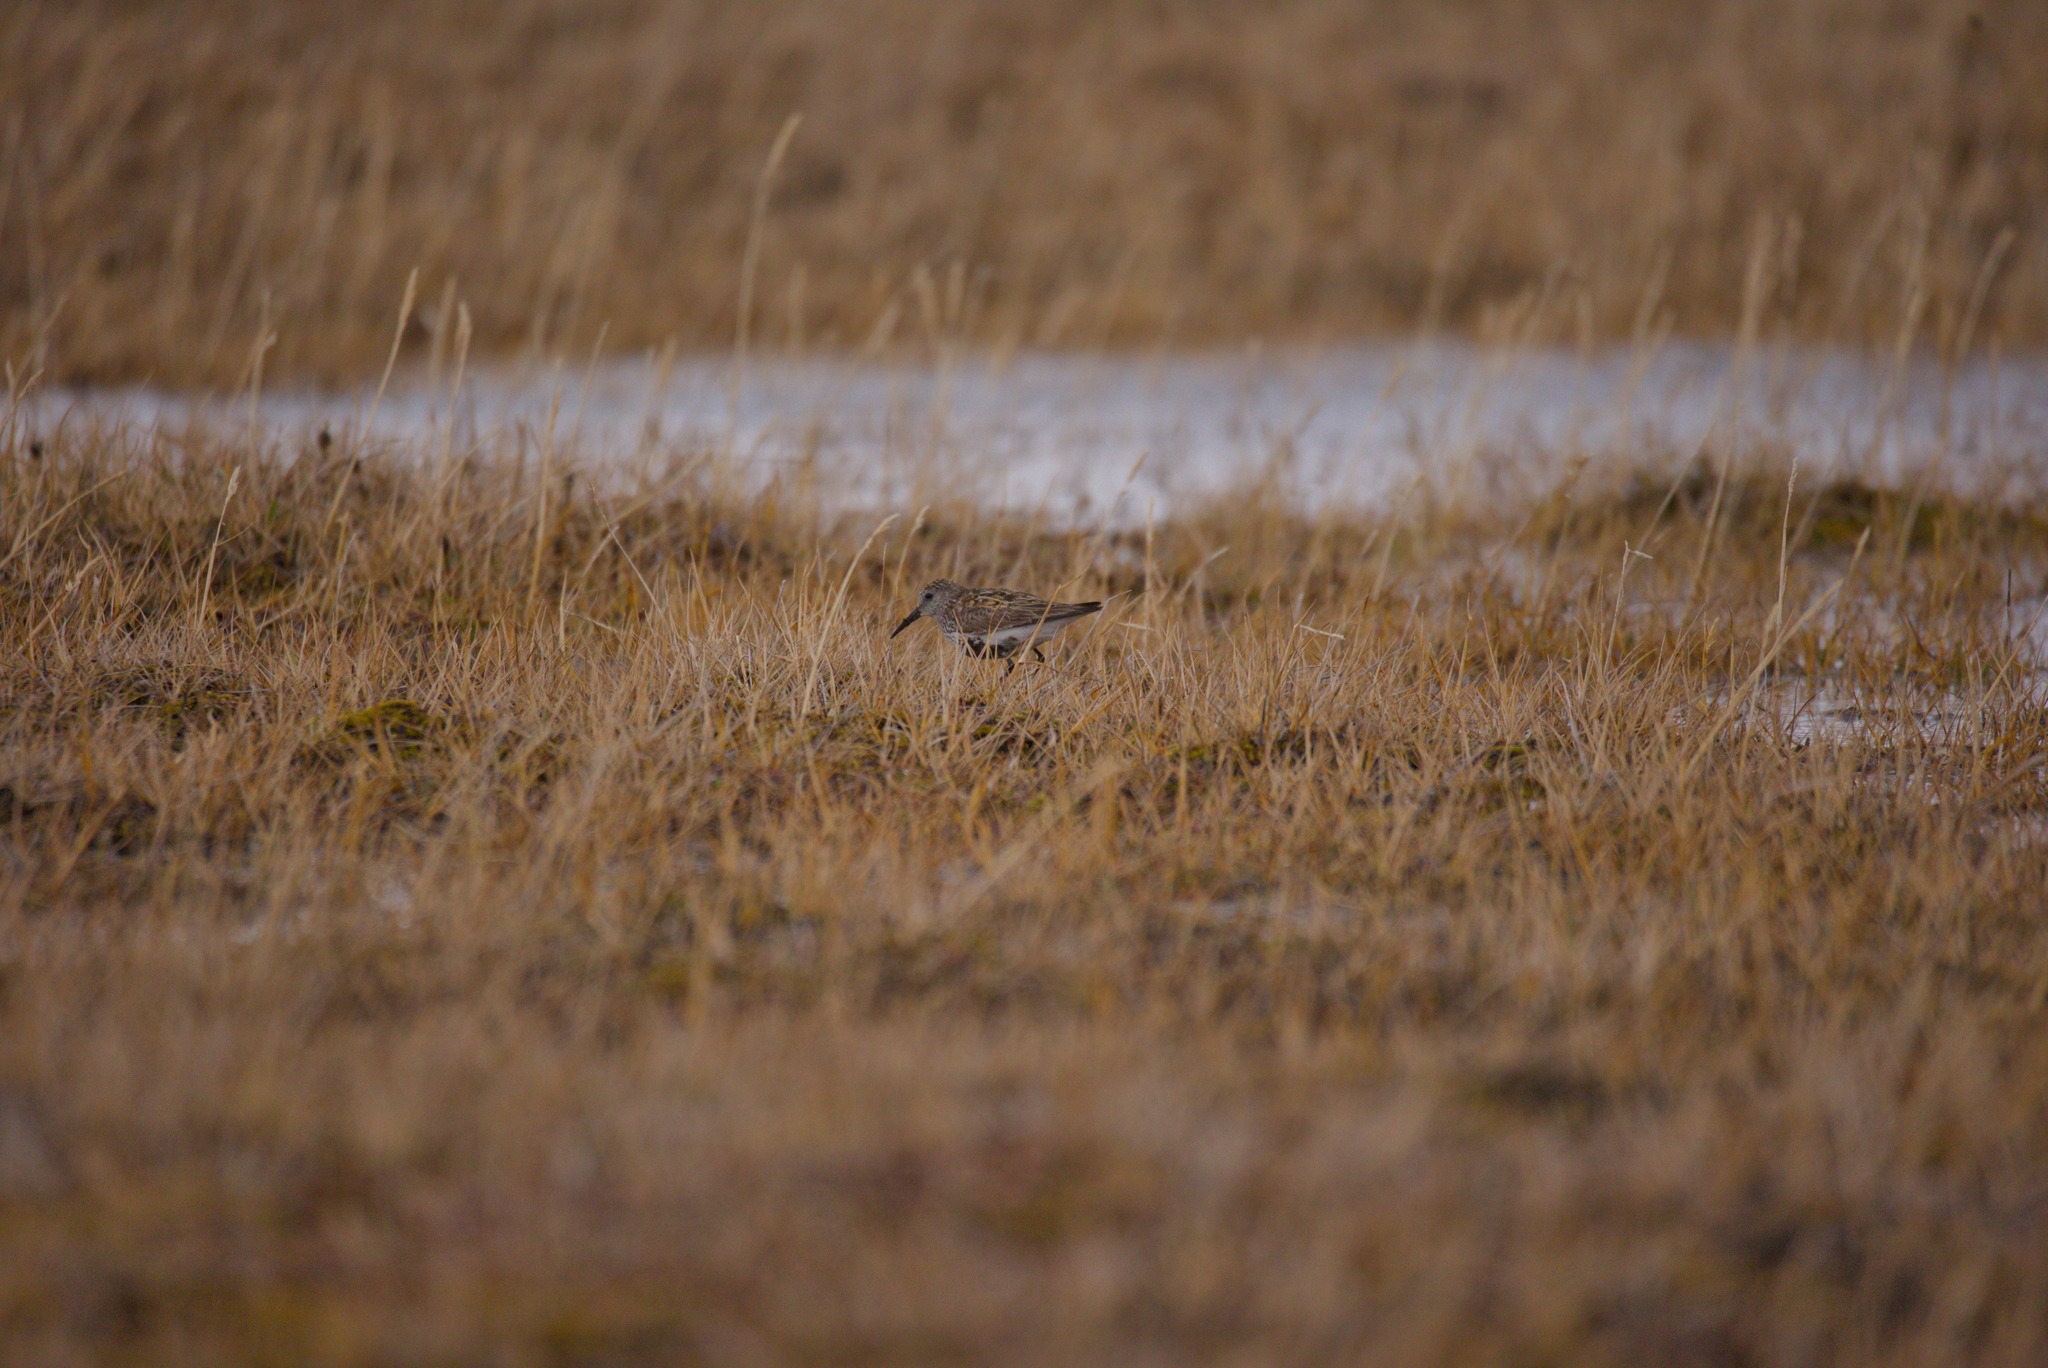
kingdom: Animalia
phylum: Chordata
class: Aves
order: Charadriiformes
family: Scolopacidae
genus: Calidris
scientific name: Calidris alpina
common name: Dunlin
